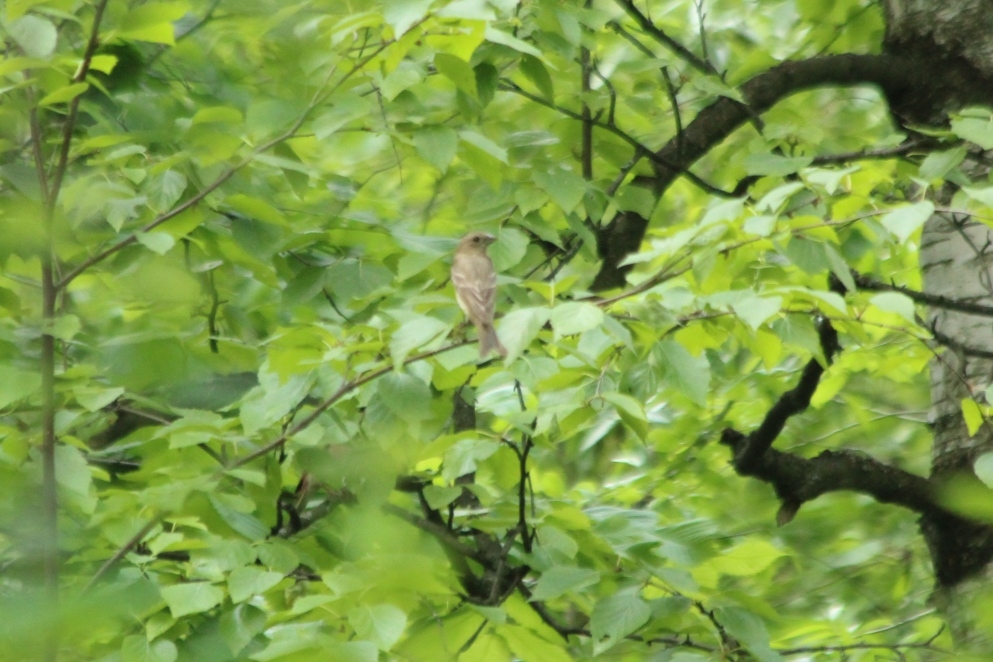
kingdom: Animalia
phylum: Chordata
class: Aves
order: Passeriformes
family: Fringillidae
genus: Carpodacus
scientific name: Carpodacus erythrinus
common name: Common rosefinch
